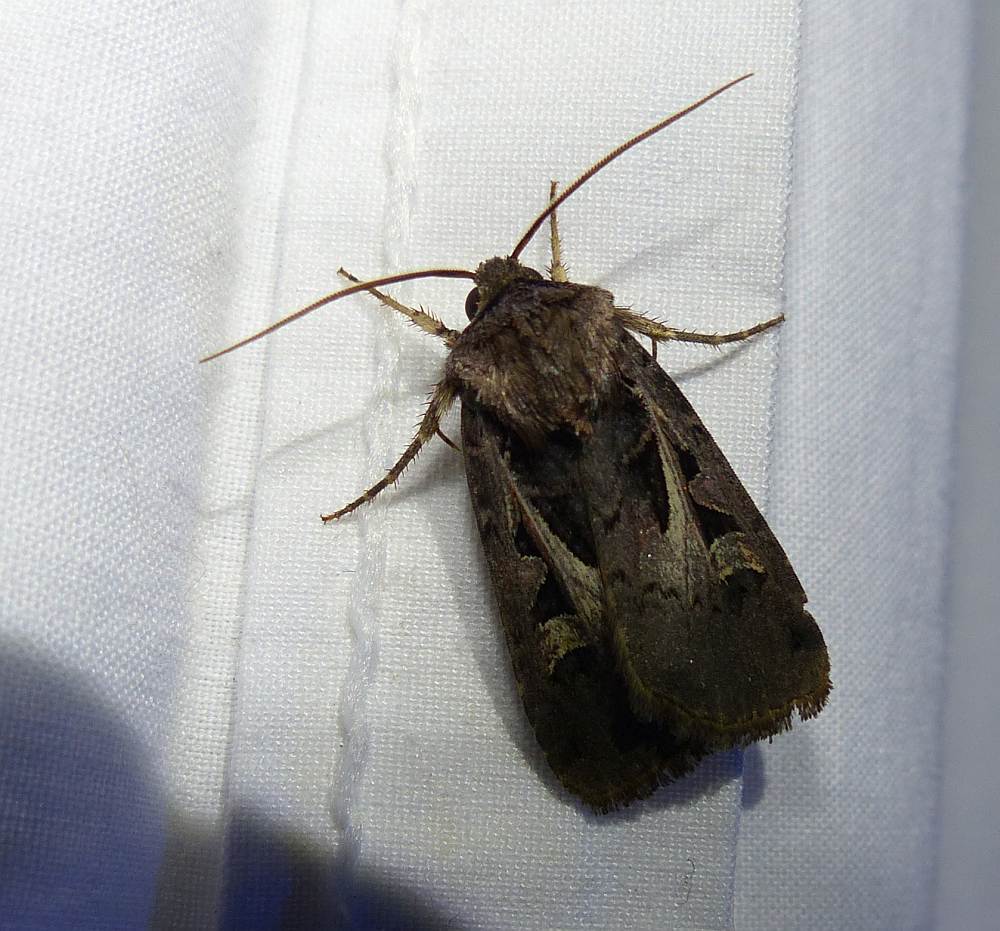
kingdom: Animalia
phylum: Arthropoda
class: Insecta
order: Lepidoptera
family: Noctuidae
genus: Feltia
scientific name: Feltia herilis
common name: Master's dart
